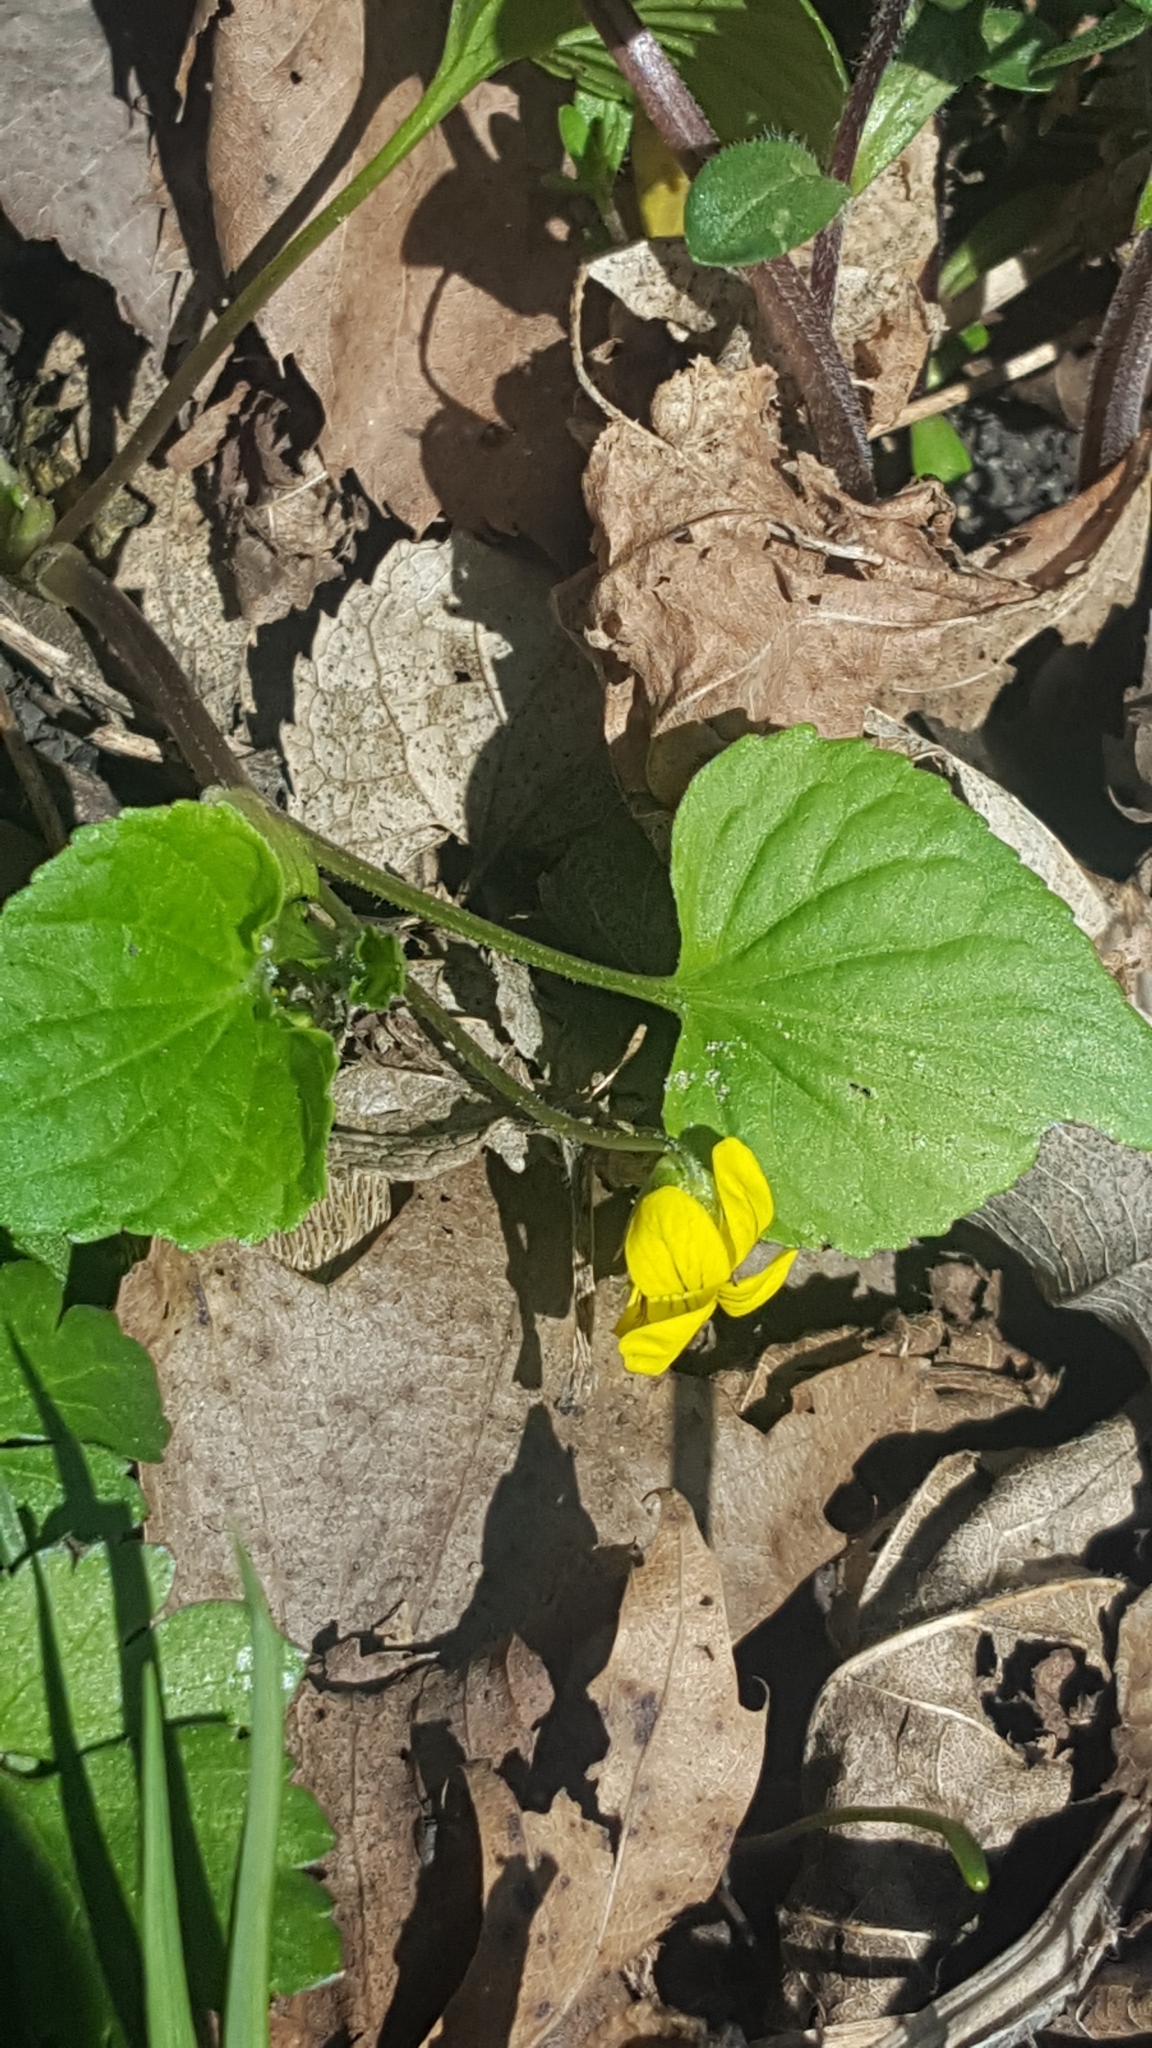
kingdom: Plantae
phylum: Tracheophyta
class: Magnoliopsida
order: Malpighiales
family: Violaceae
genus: Viola
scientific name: Viola eriocarpa
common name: Smooth yellow violet
